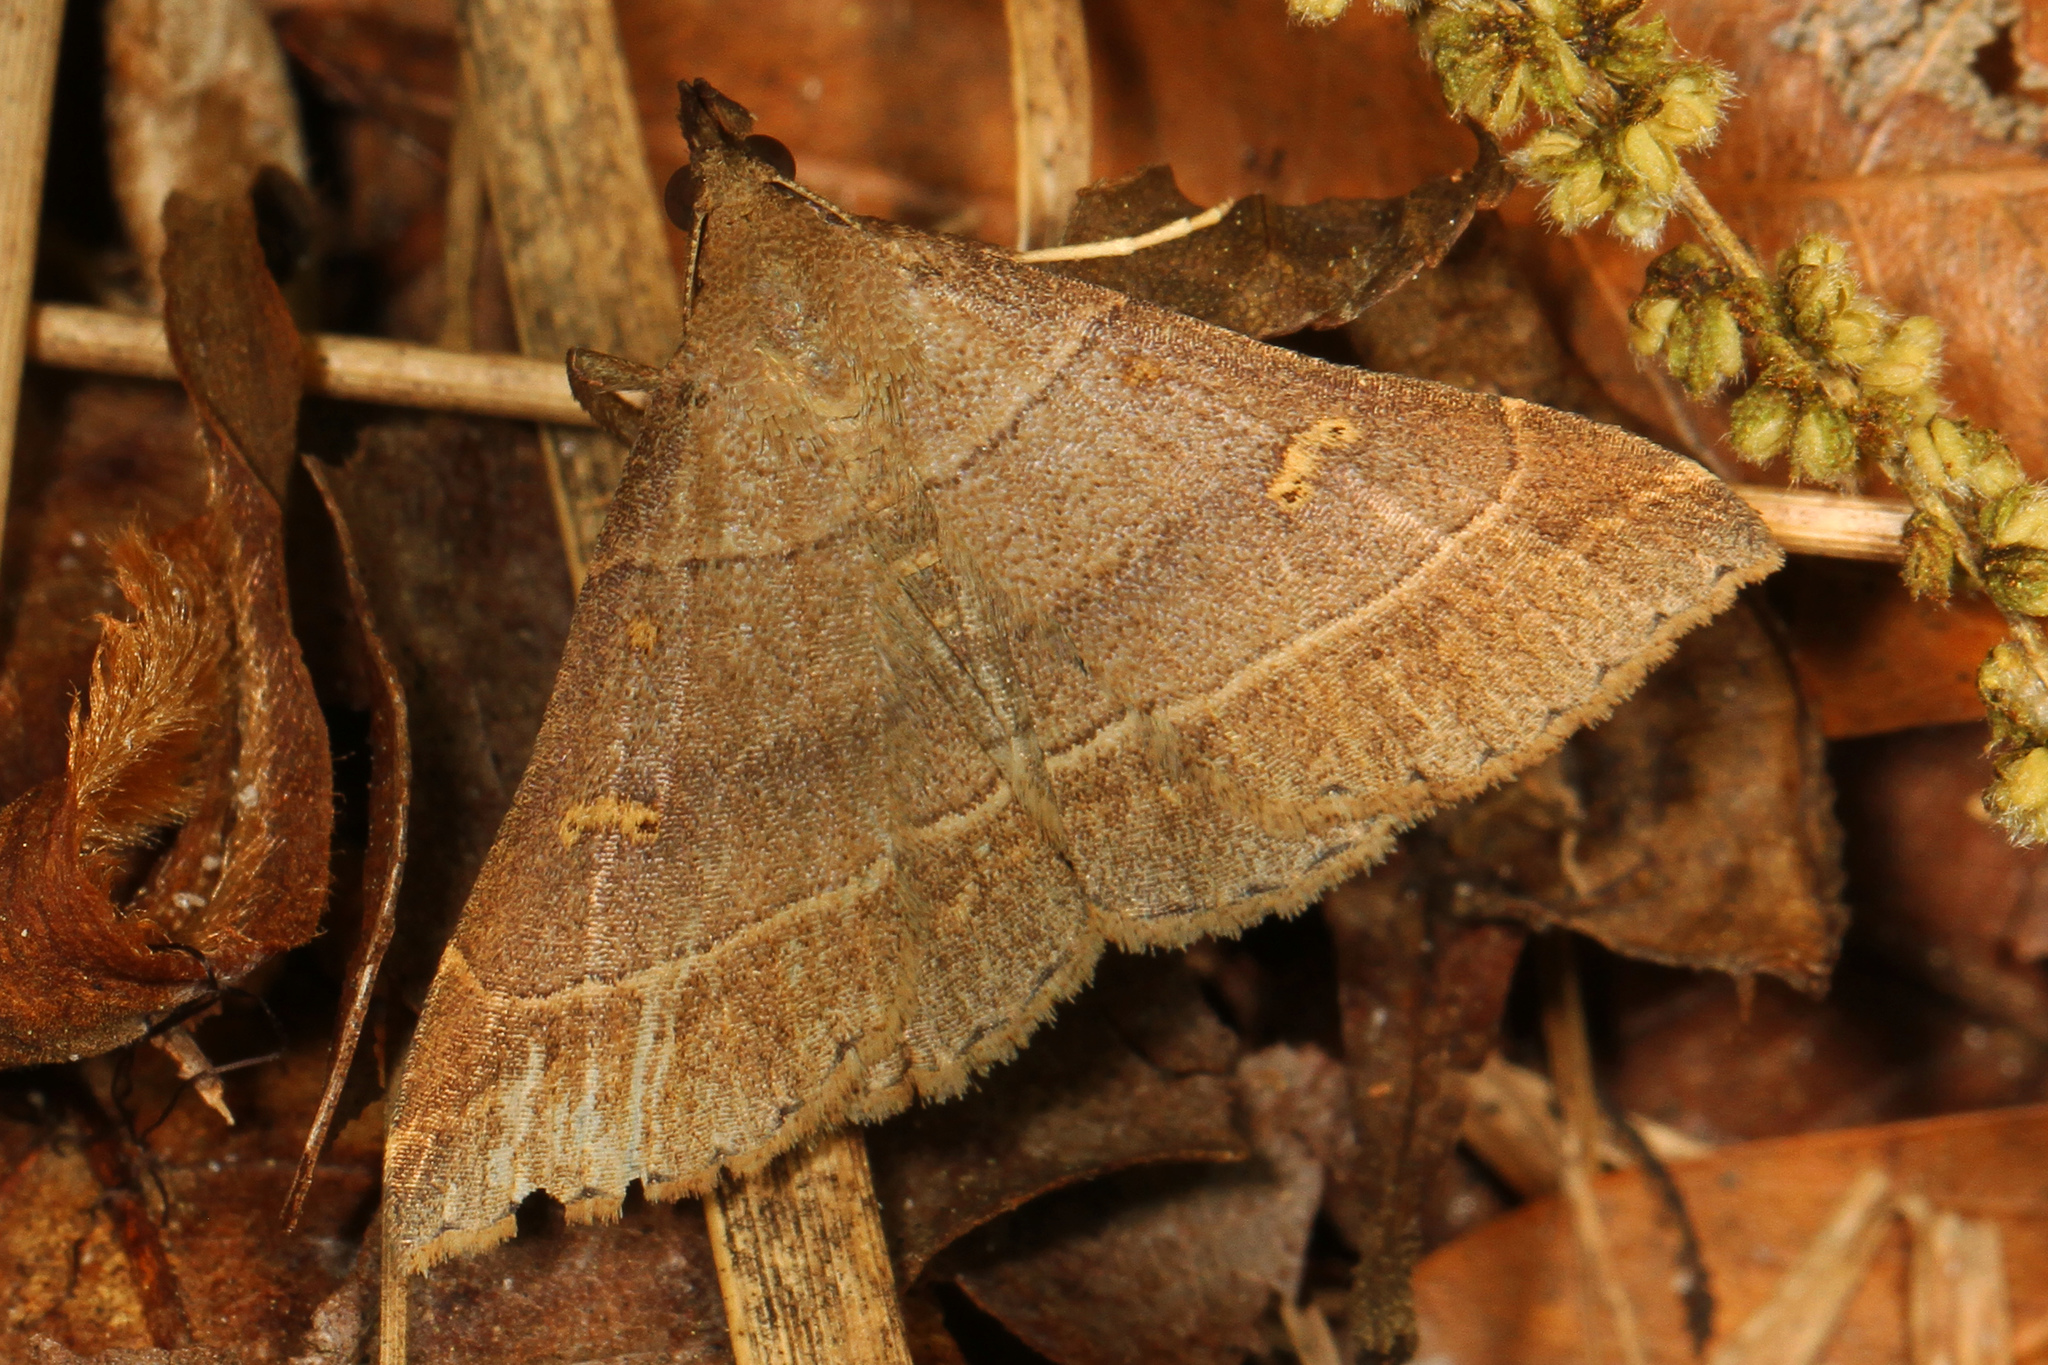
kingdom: Animalia
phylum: Arthropoda
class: Insecta
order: Lepidoptera
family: Erebidae
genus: Renia
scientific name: Renia flavipunctalis
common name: Yellow-spotted renia moth
